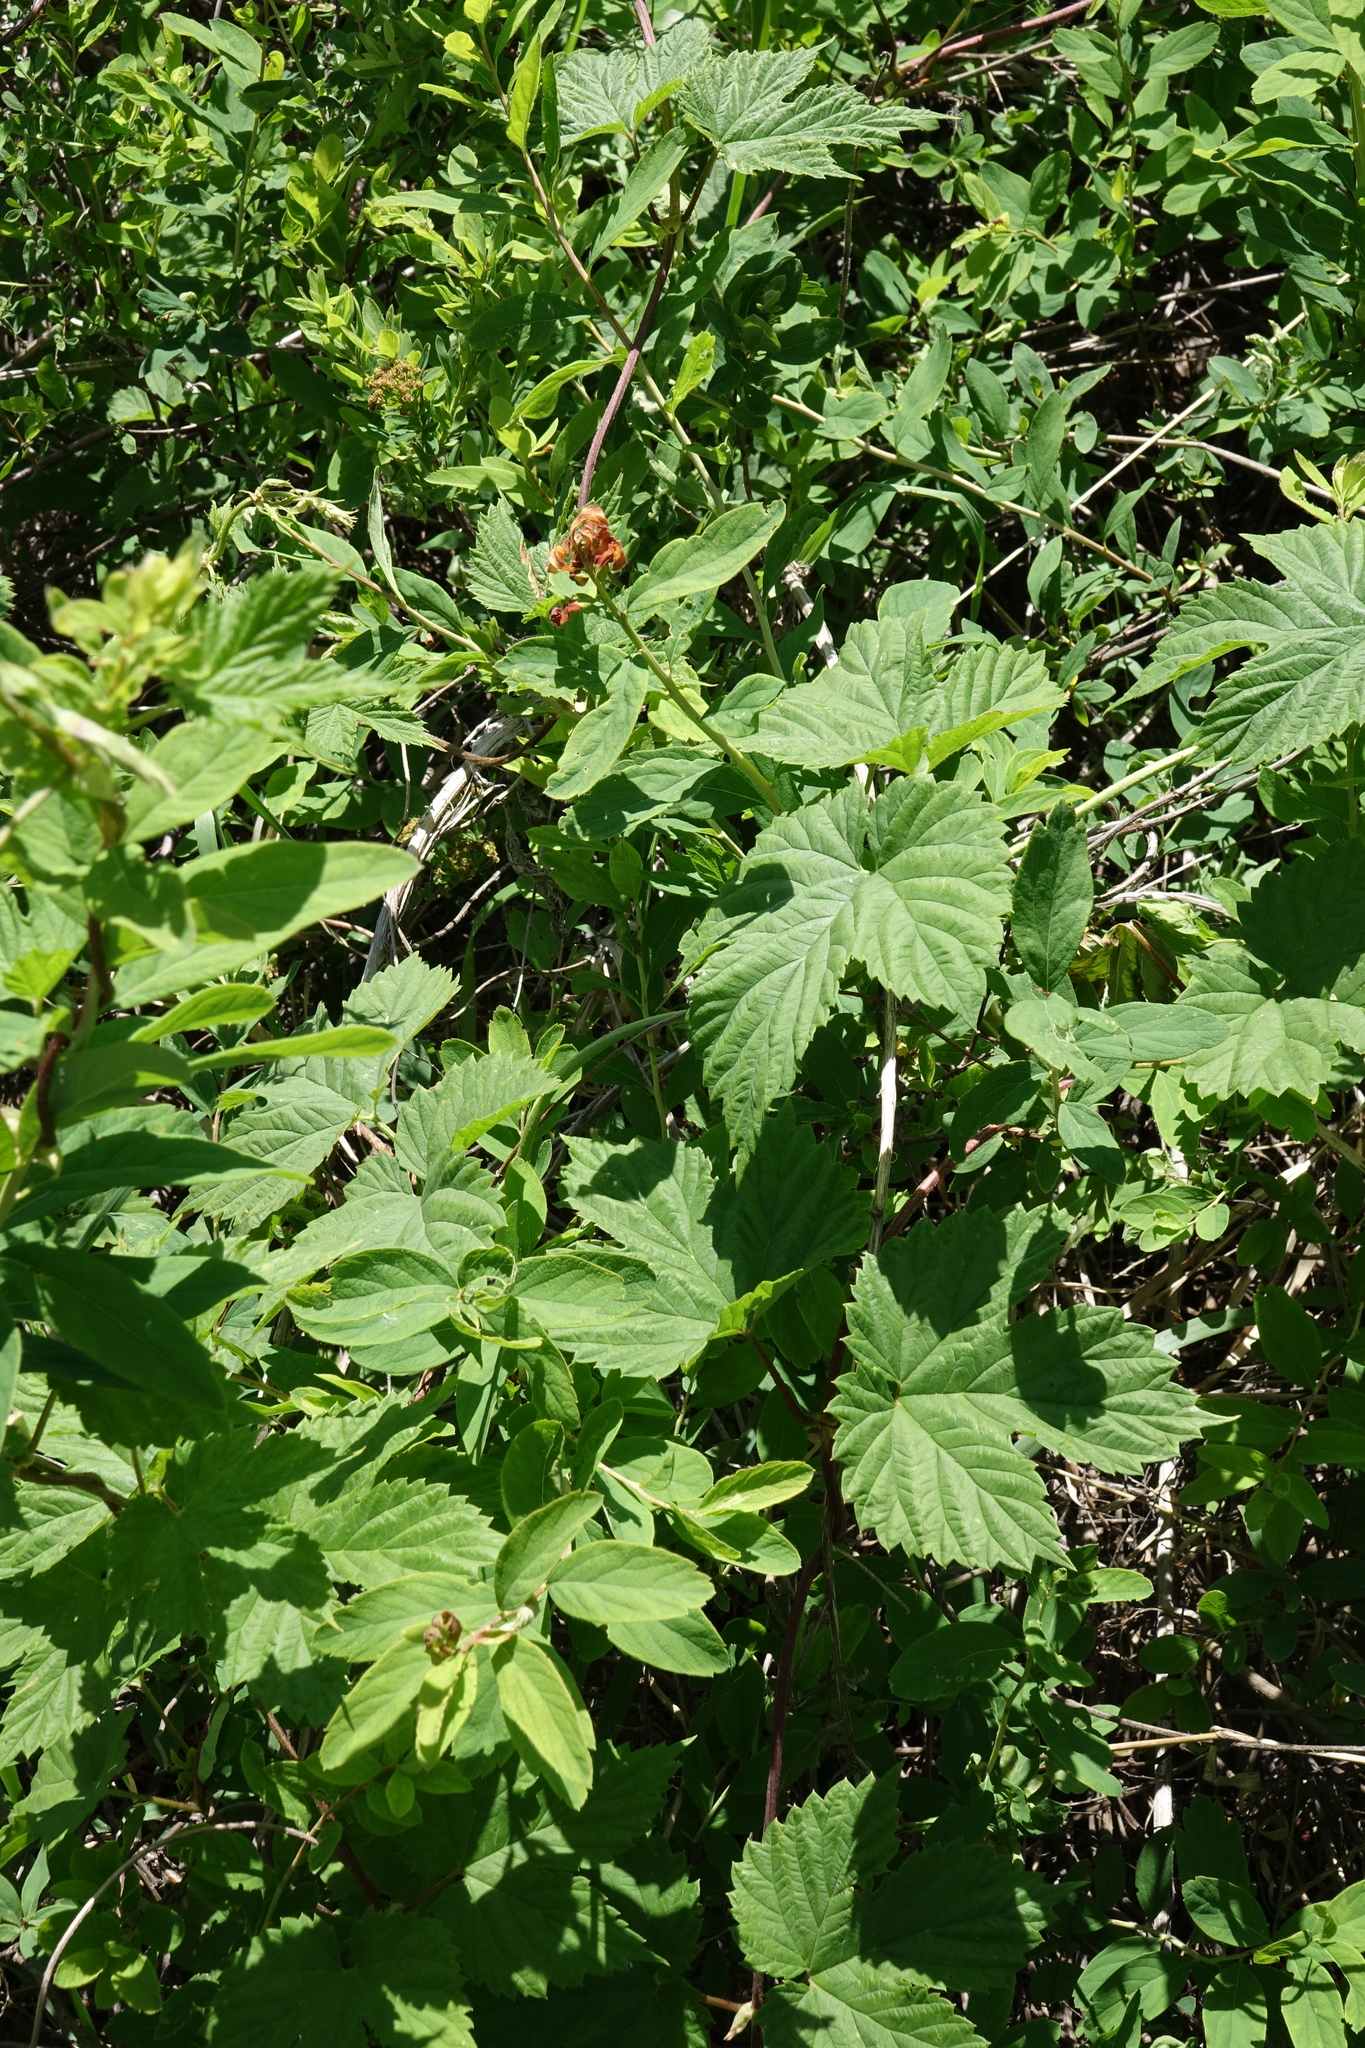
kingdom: Plantae
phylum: Tracheophyta
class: Magnoliopsida
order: Rosales
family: Cannabaceae
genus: Humulus
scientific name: Humulus lupulus
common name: Hop
